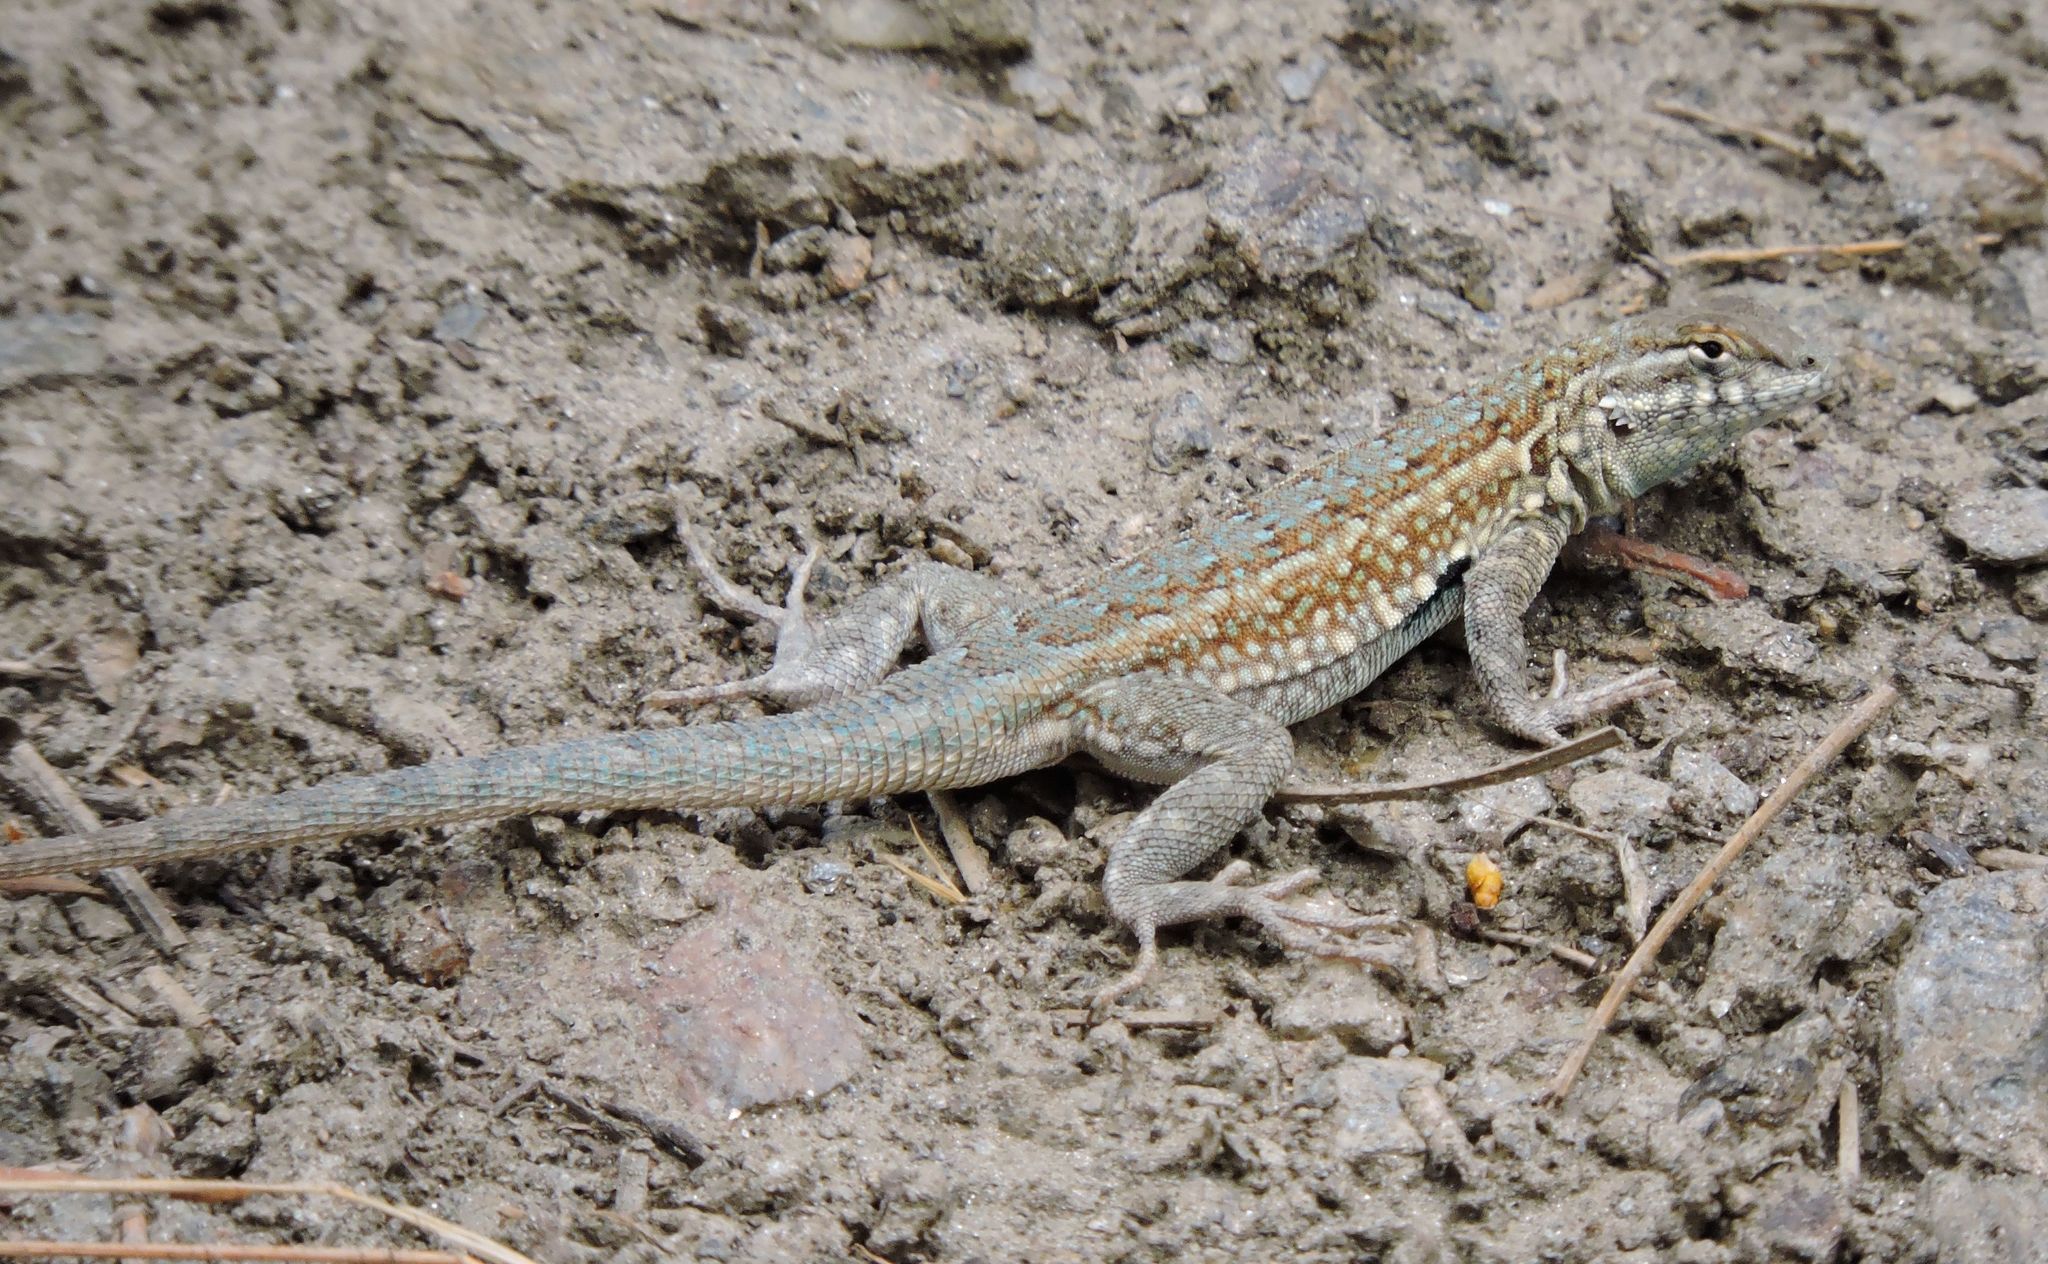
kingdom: Animalia
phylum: Chordata
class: Squamata
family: Phrynosomatidae
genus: Uta
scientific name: Uta stansburiana
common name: Side-blotched lizard
